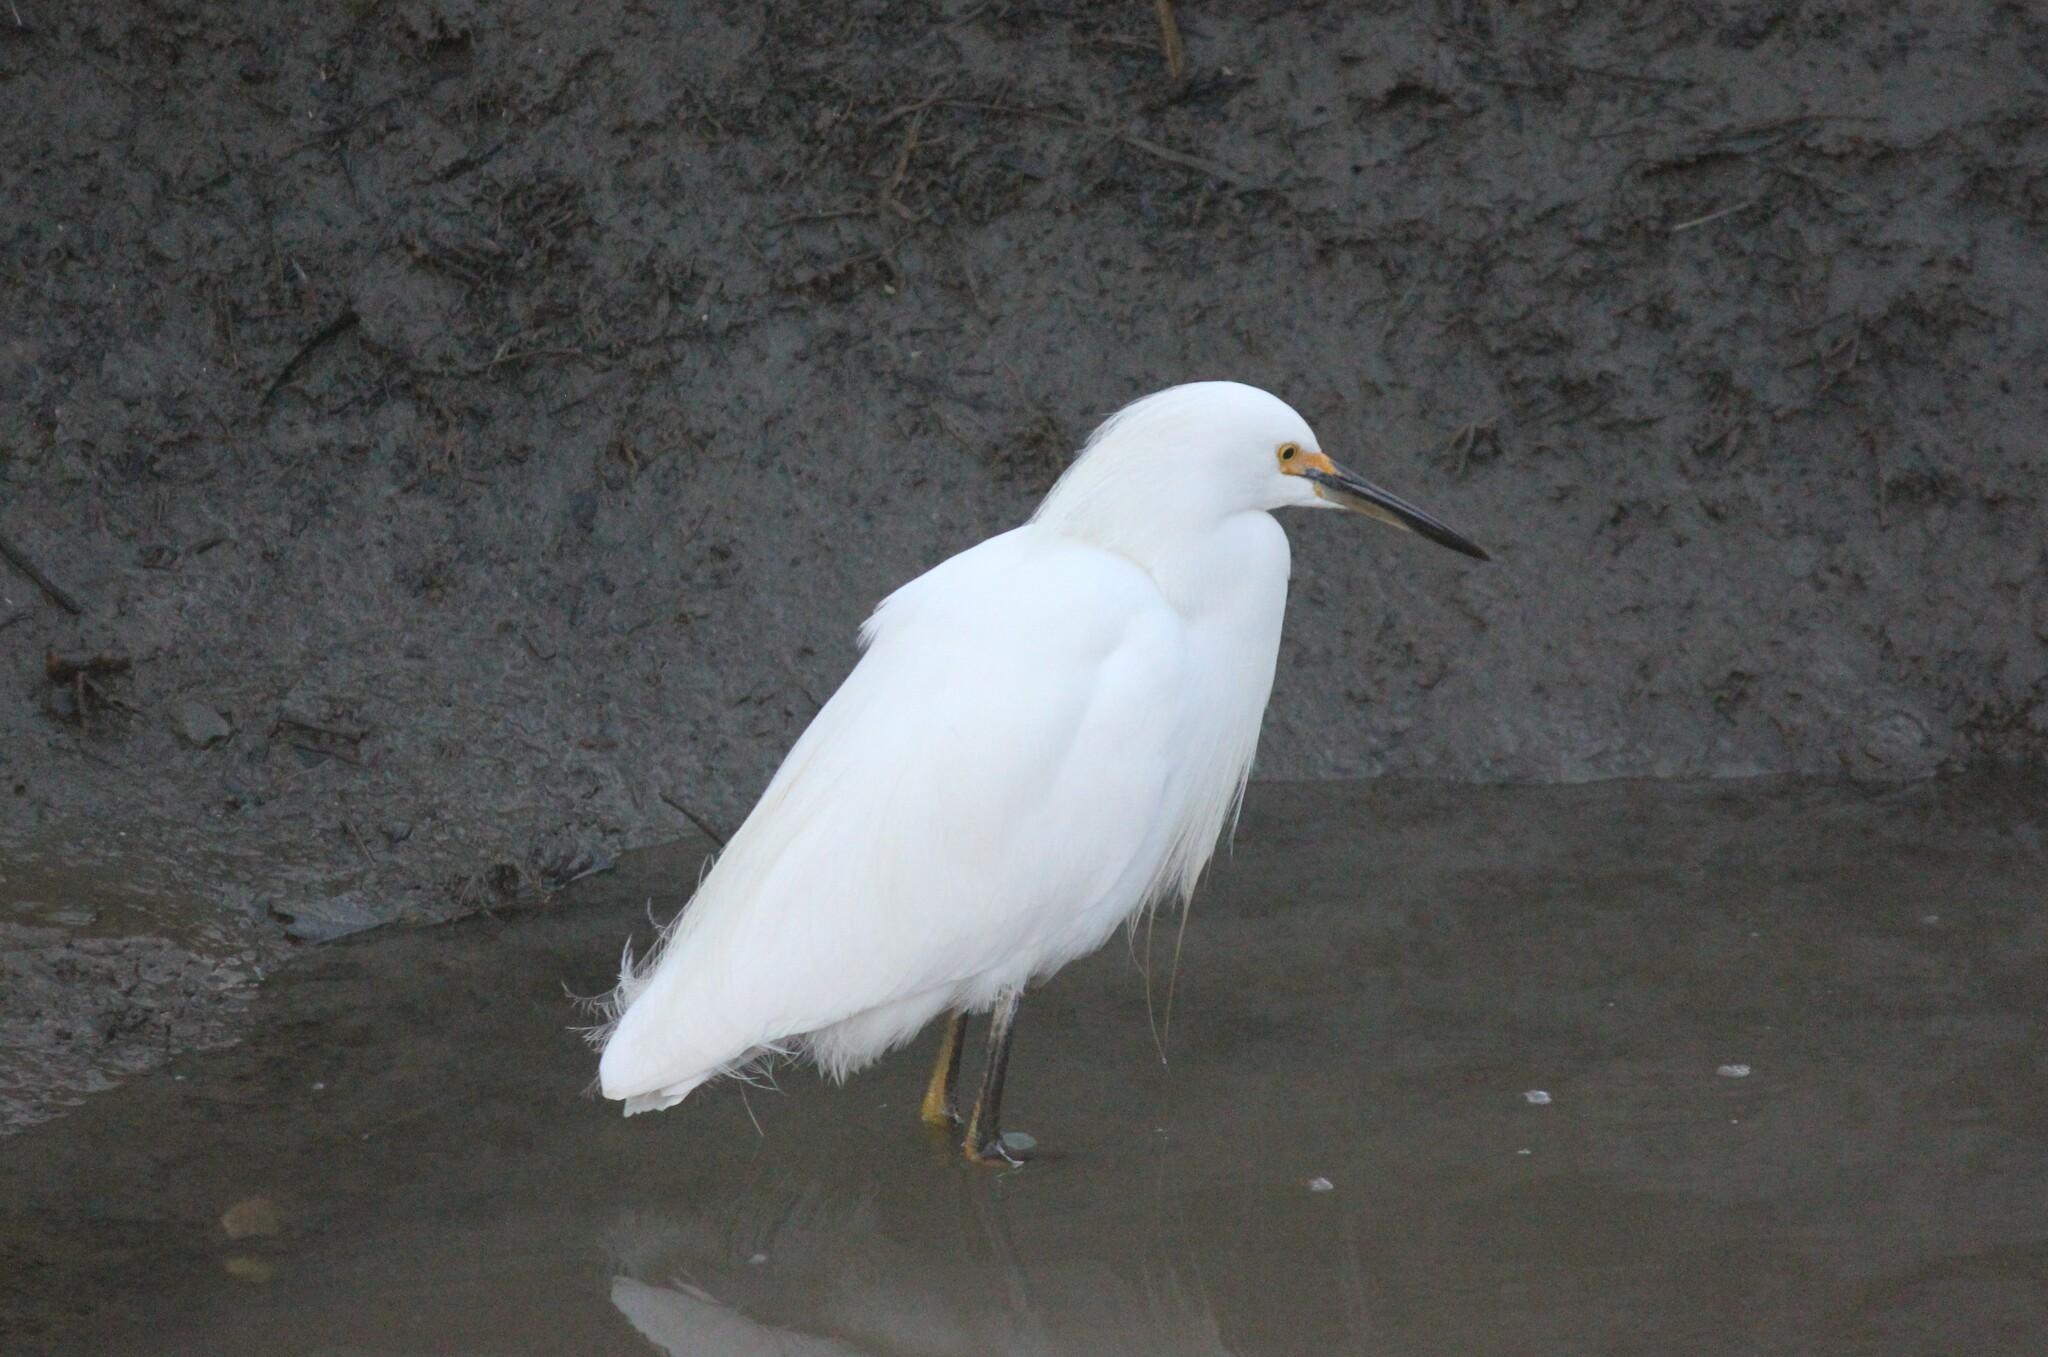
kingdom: Animalia
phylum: Chordata
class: Aves
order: Pelecaniformes
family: Ardeidae
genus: Egretta
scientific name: Egretta thula
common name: Snowy egret
